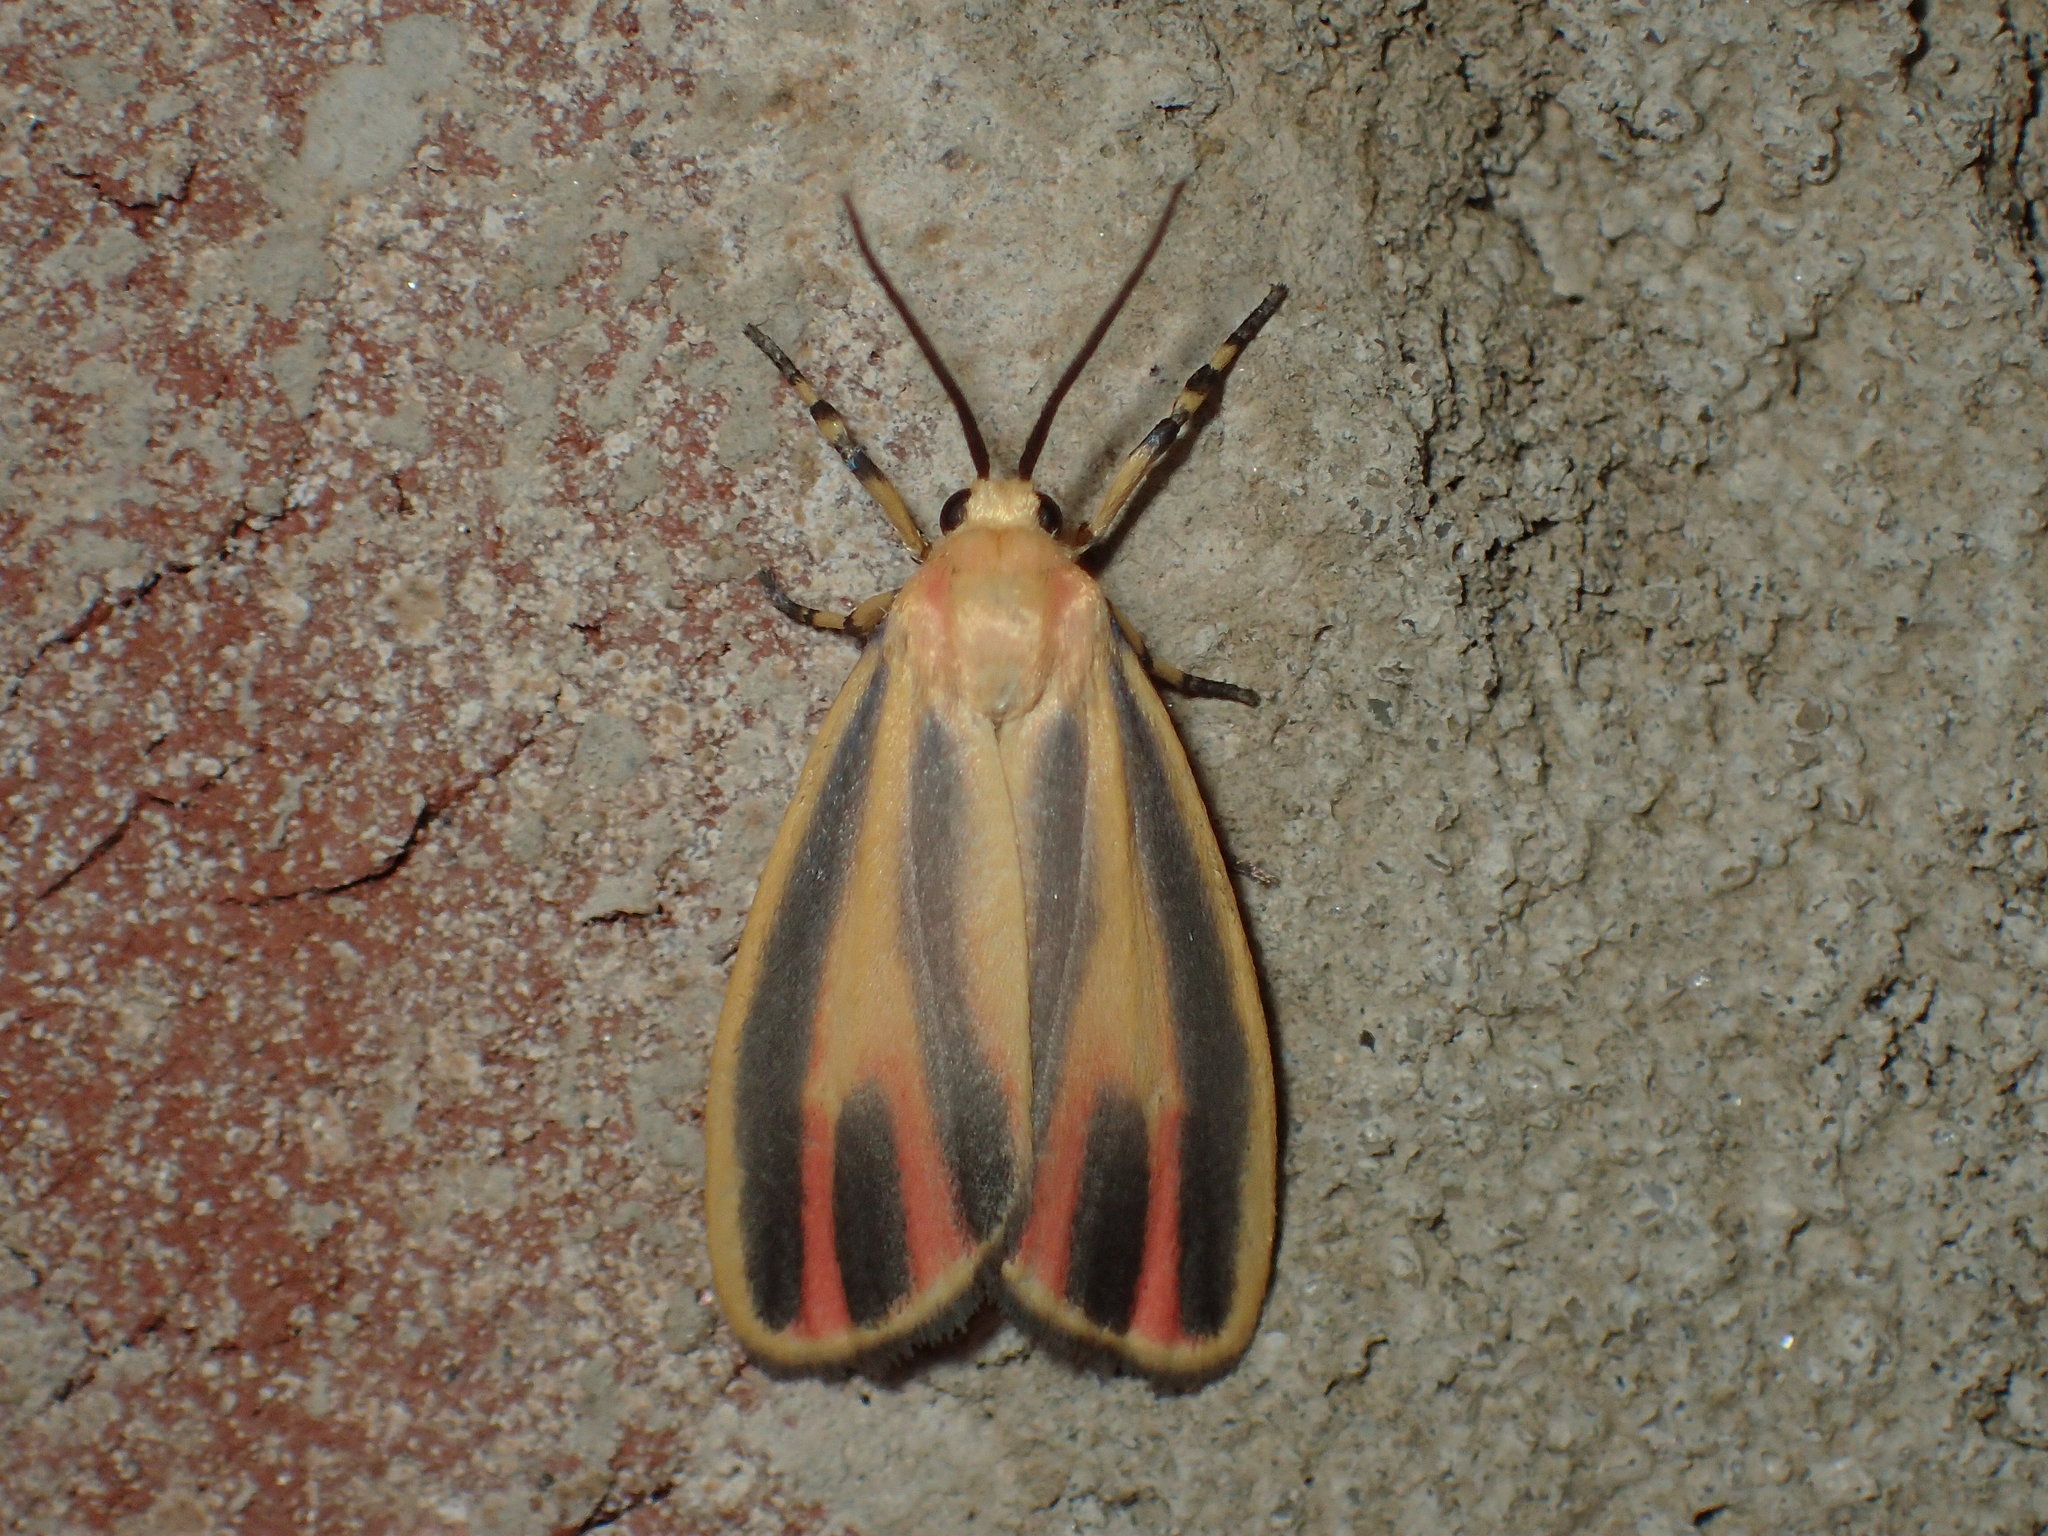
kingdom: Animalia
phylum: Arthropoda
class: Insecta
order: Lepidoptera
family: Erebidae
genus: Hypoprepia
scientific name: Hypoprepia fucosa
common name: Painted lichen moth
